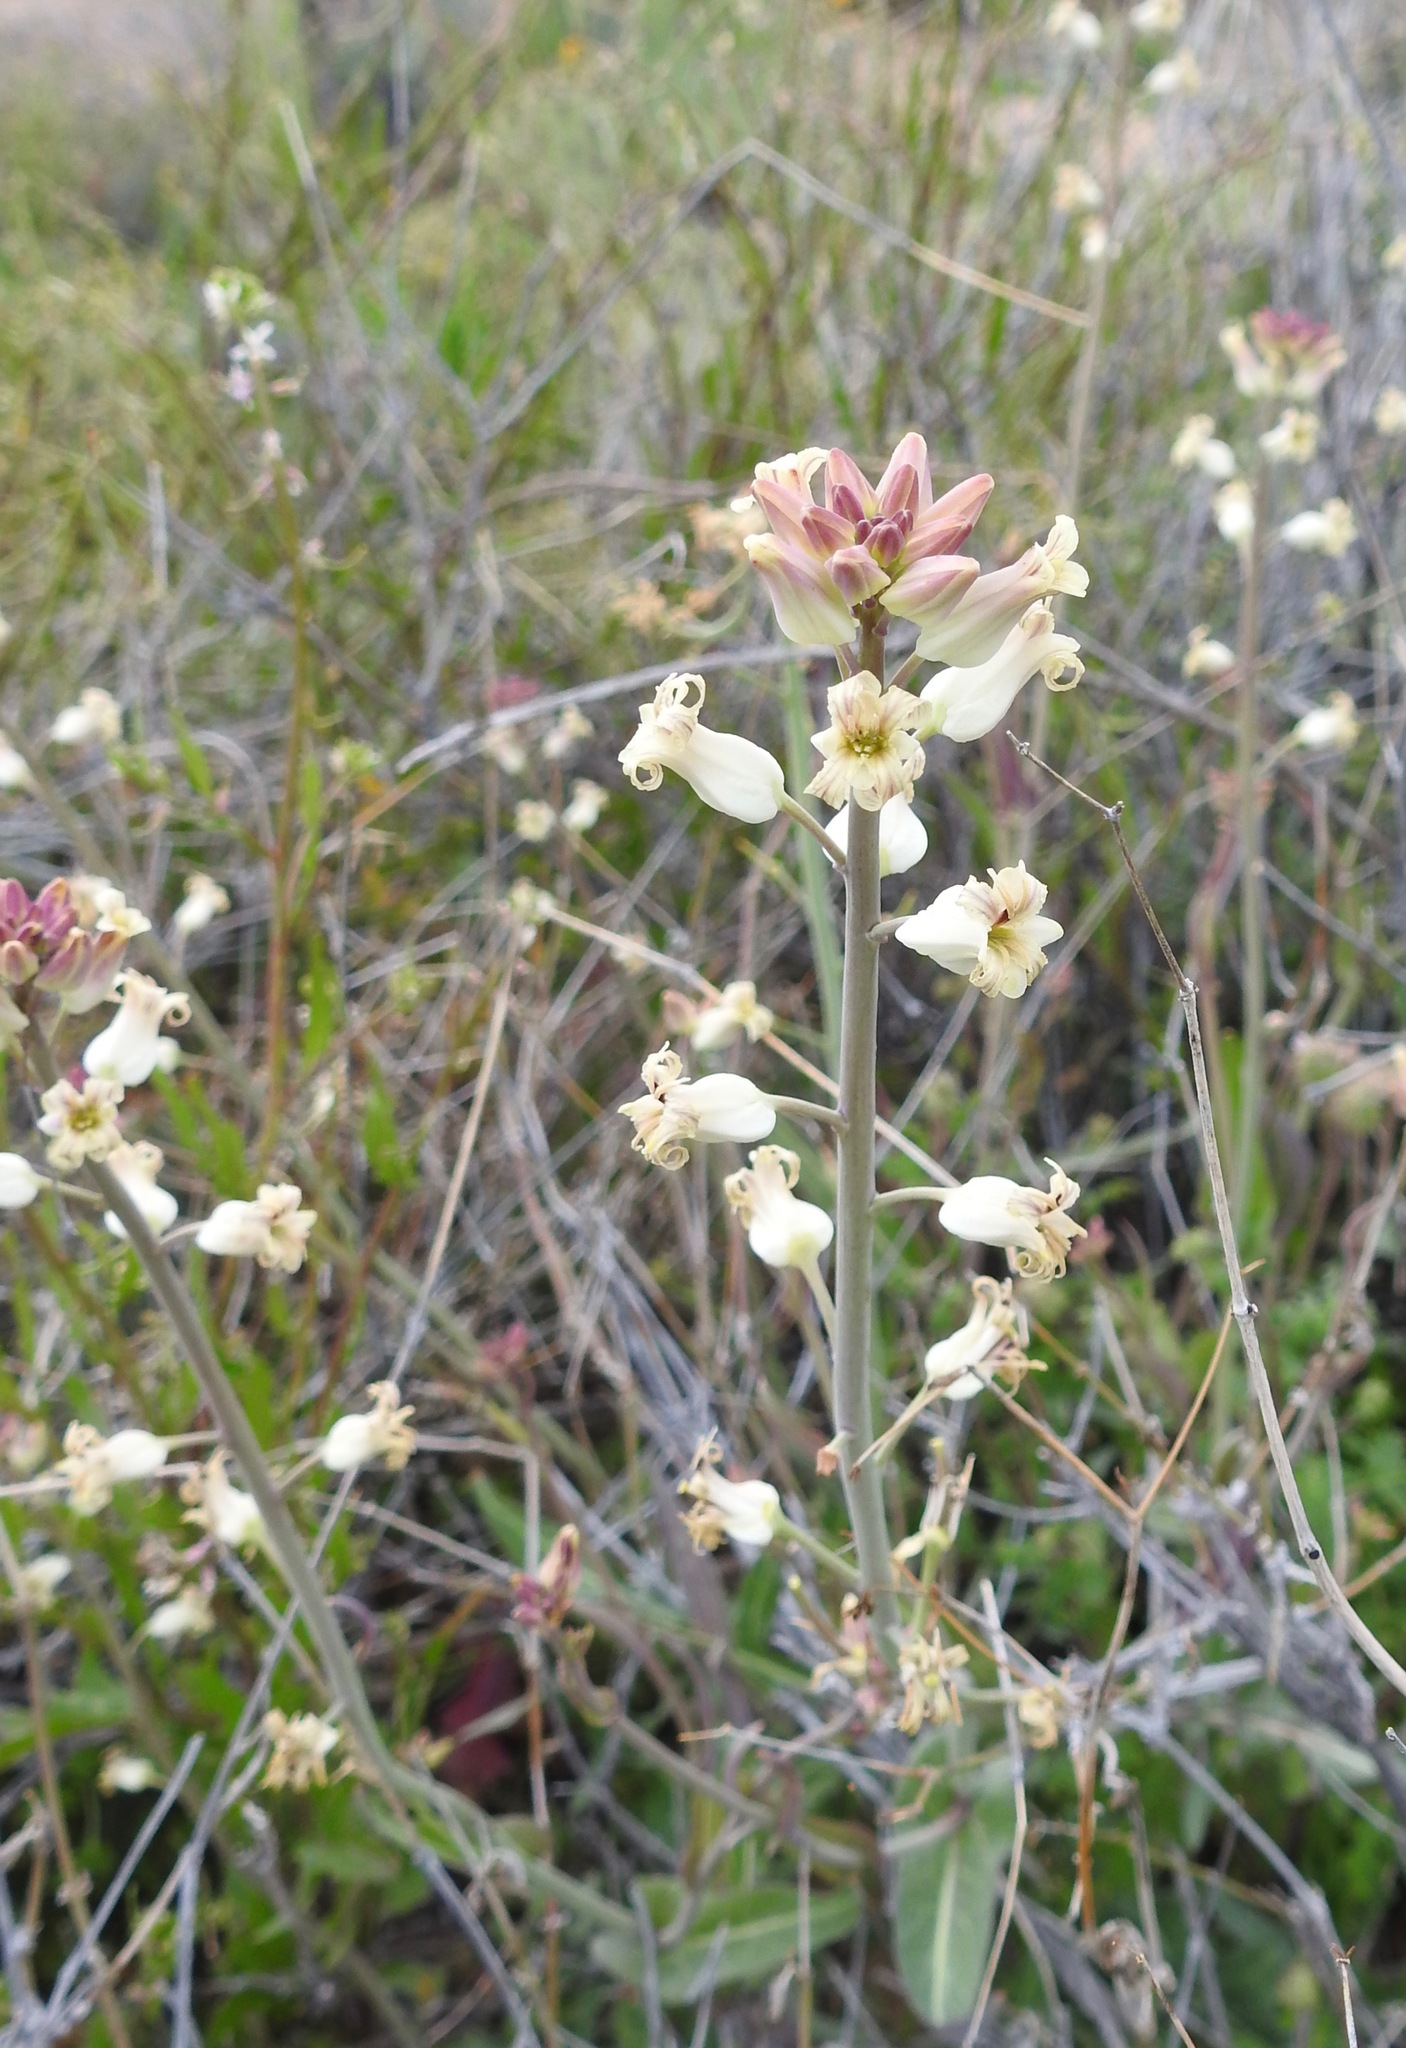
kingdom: Plantae
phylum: Tracheophyta
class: Magnoliopsida
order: Brassicales
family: Brassicaceae
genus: Streptanthus
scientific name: Streptanthus carinatus
